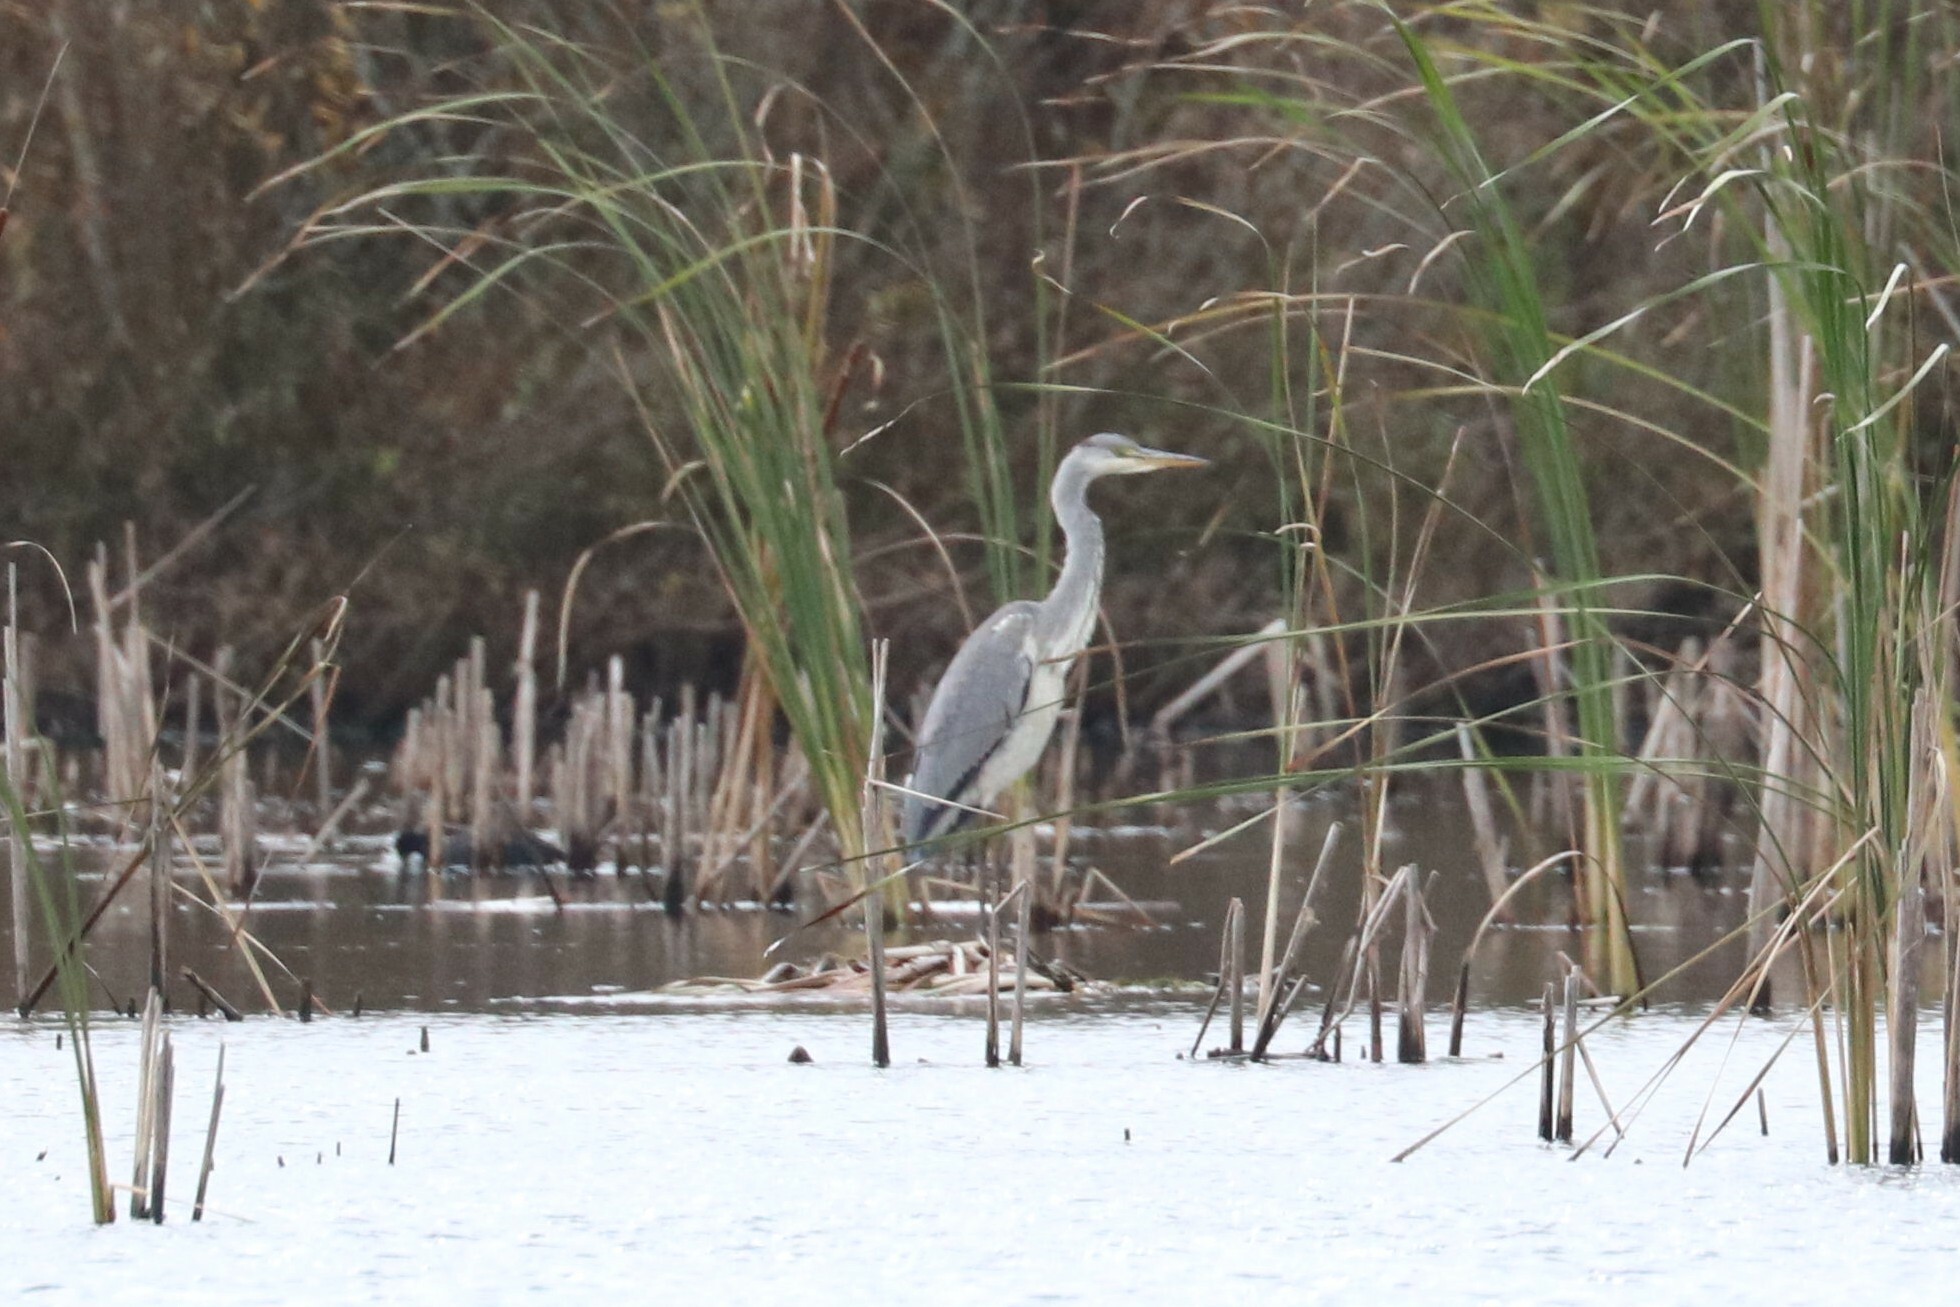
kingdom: Animalia
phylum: Chordata
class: Aves
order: Pelecaniformes
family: Ardeidae
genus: Ardea
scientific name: Ardea cinerea
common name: Grey heron
